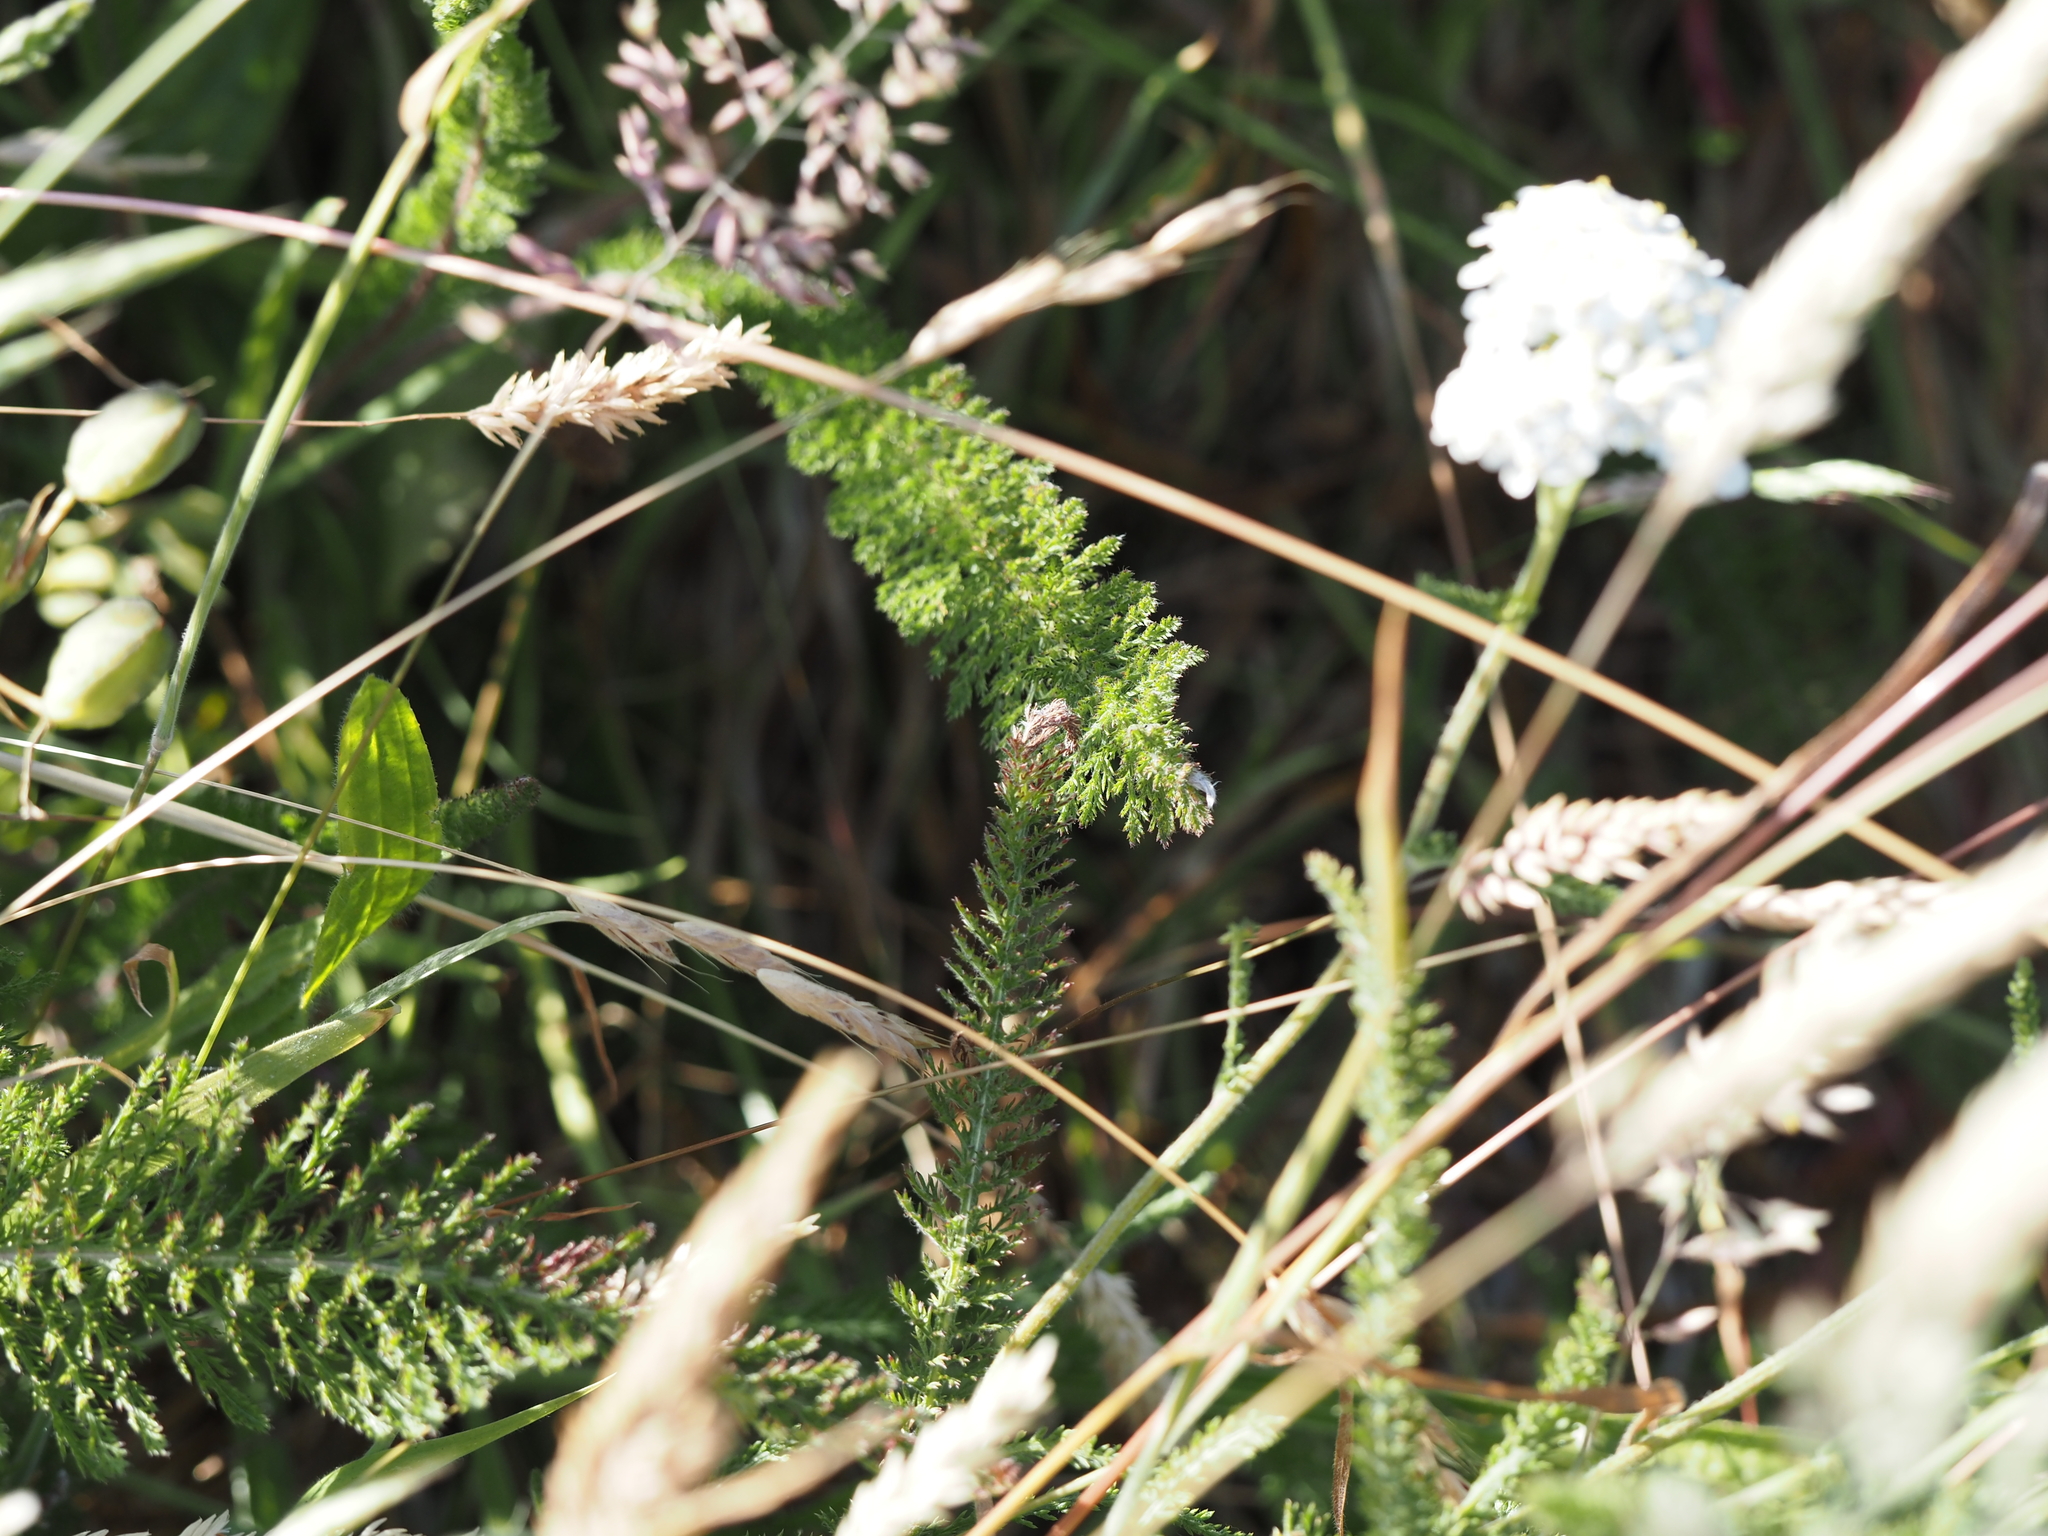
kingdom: Plantae
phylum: Tracheophyta
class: Magnoliopsida
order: Asterales
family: Asteraceae
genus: Achillea
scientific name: Achillea millefolium
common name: Yarrow
